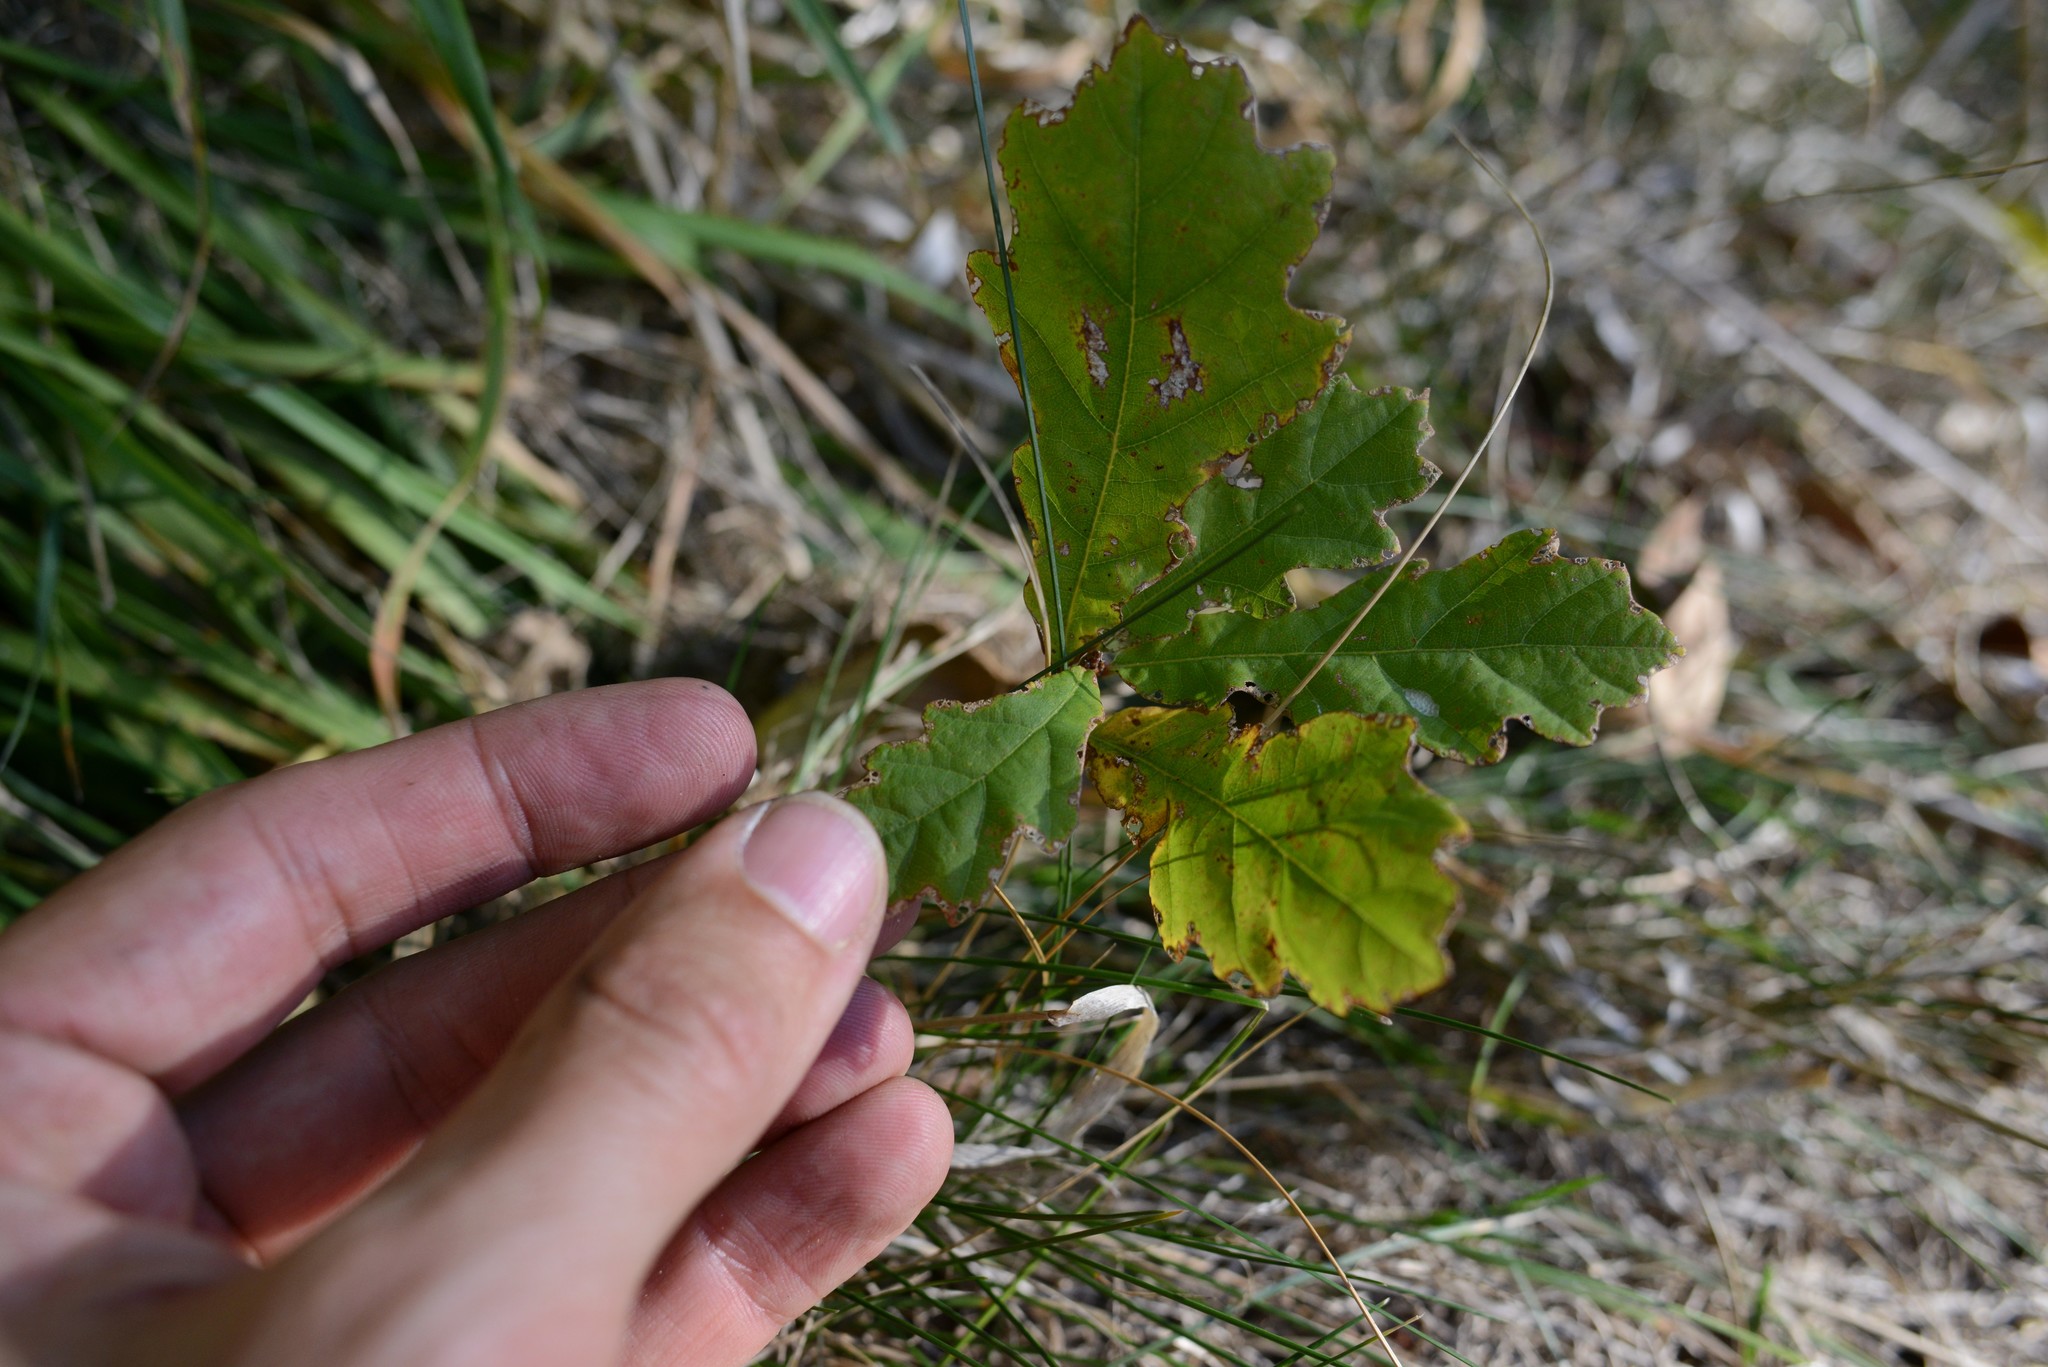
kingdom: Plantae
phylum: Tracheophyta
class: Magnoliopsida
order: Fagales
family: Fagaceae
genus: Quercus
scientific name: Quercus robur
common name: Pedunculate oak
